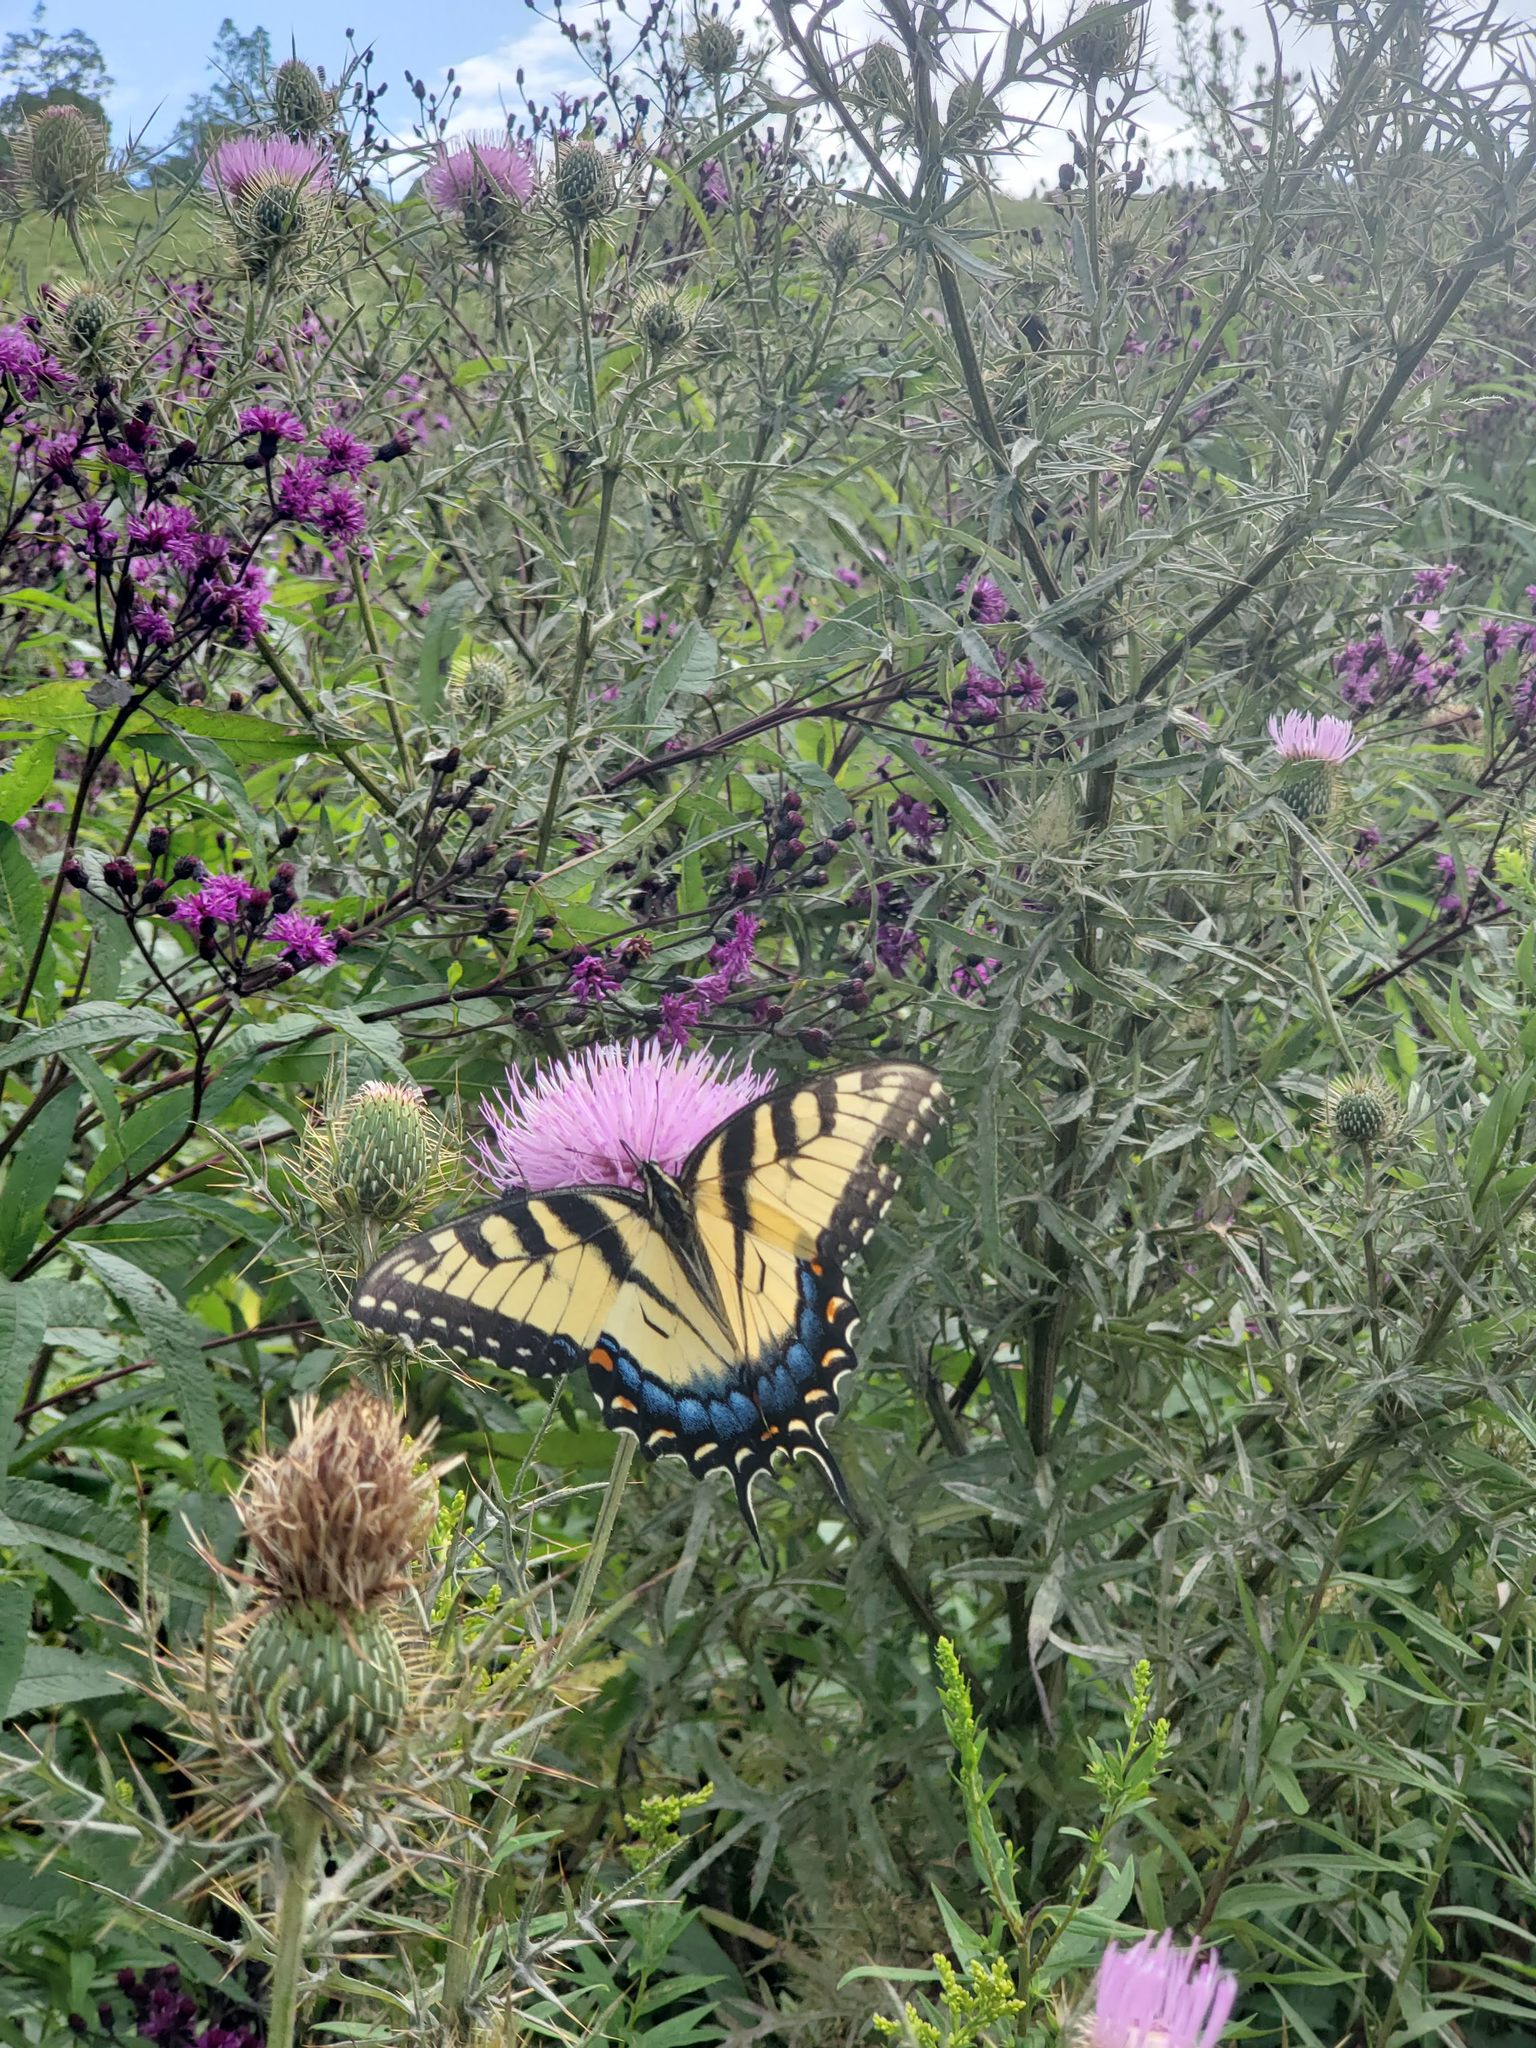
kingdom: Animalia
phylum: Arthropoda
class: Insecta
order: Lepidoptera
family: Papilionidae
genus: Papilio
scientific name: Papilio glaucus
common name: Tiger swallowtail
